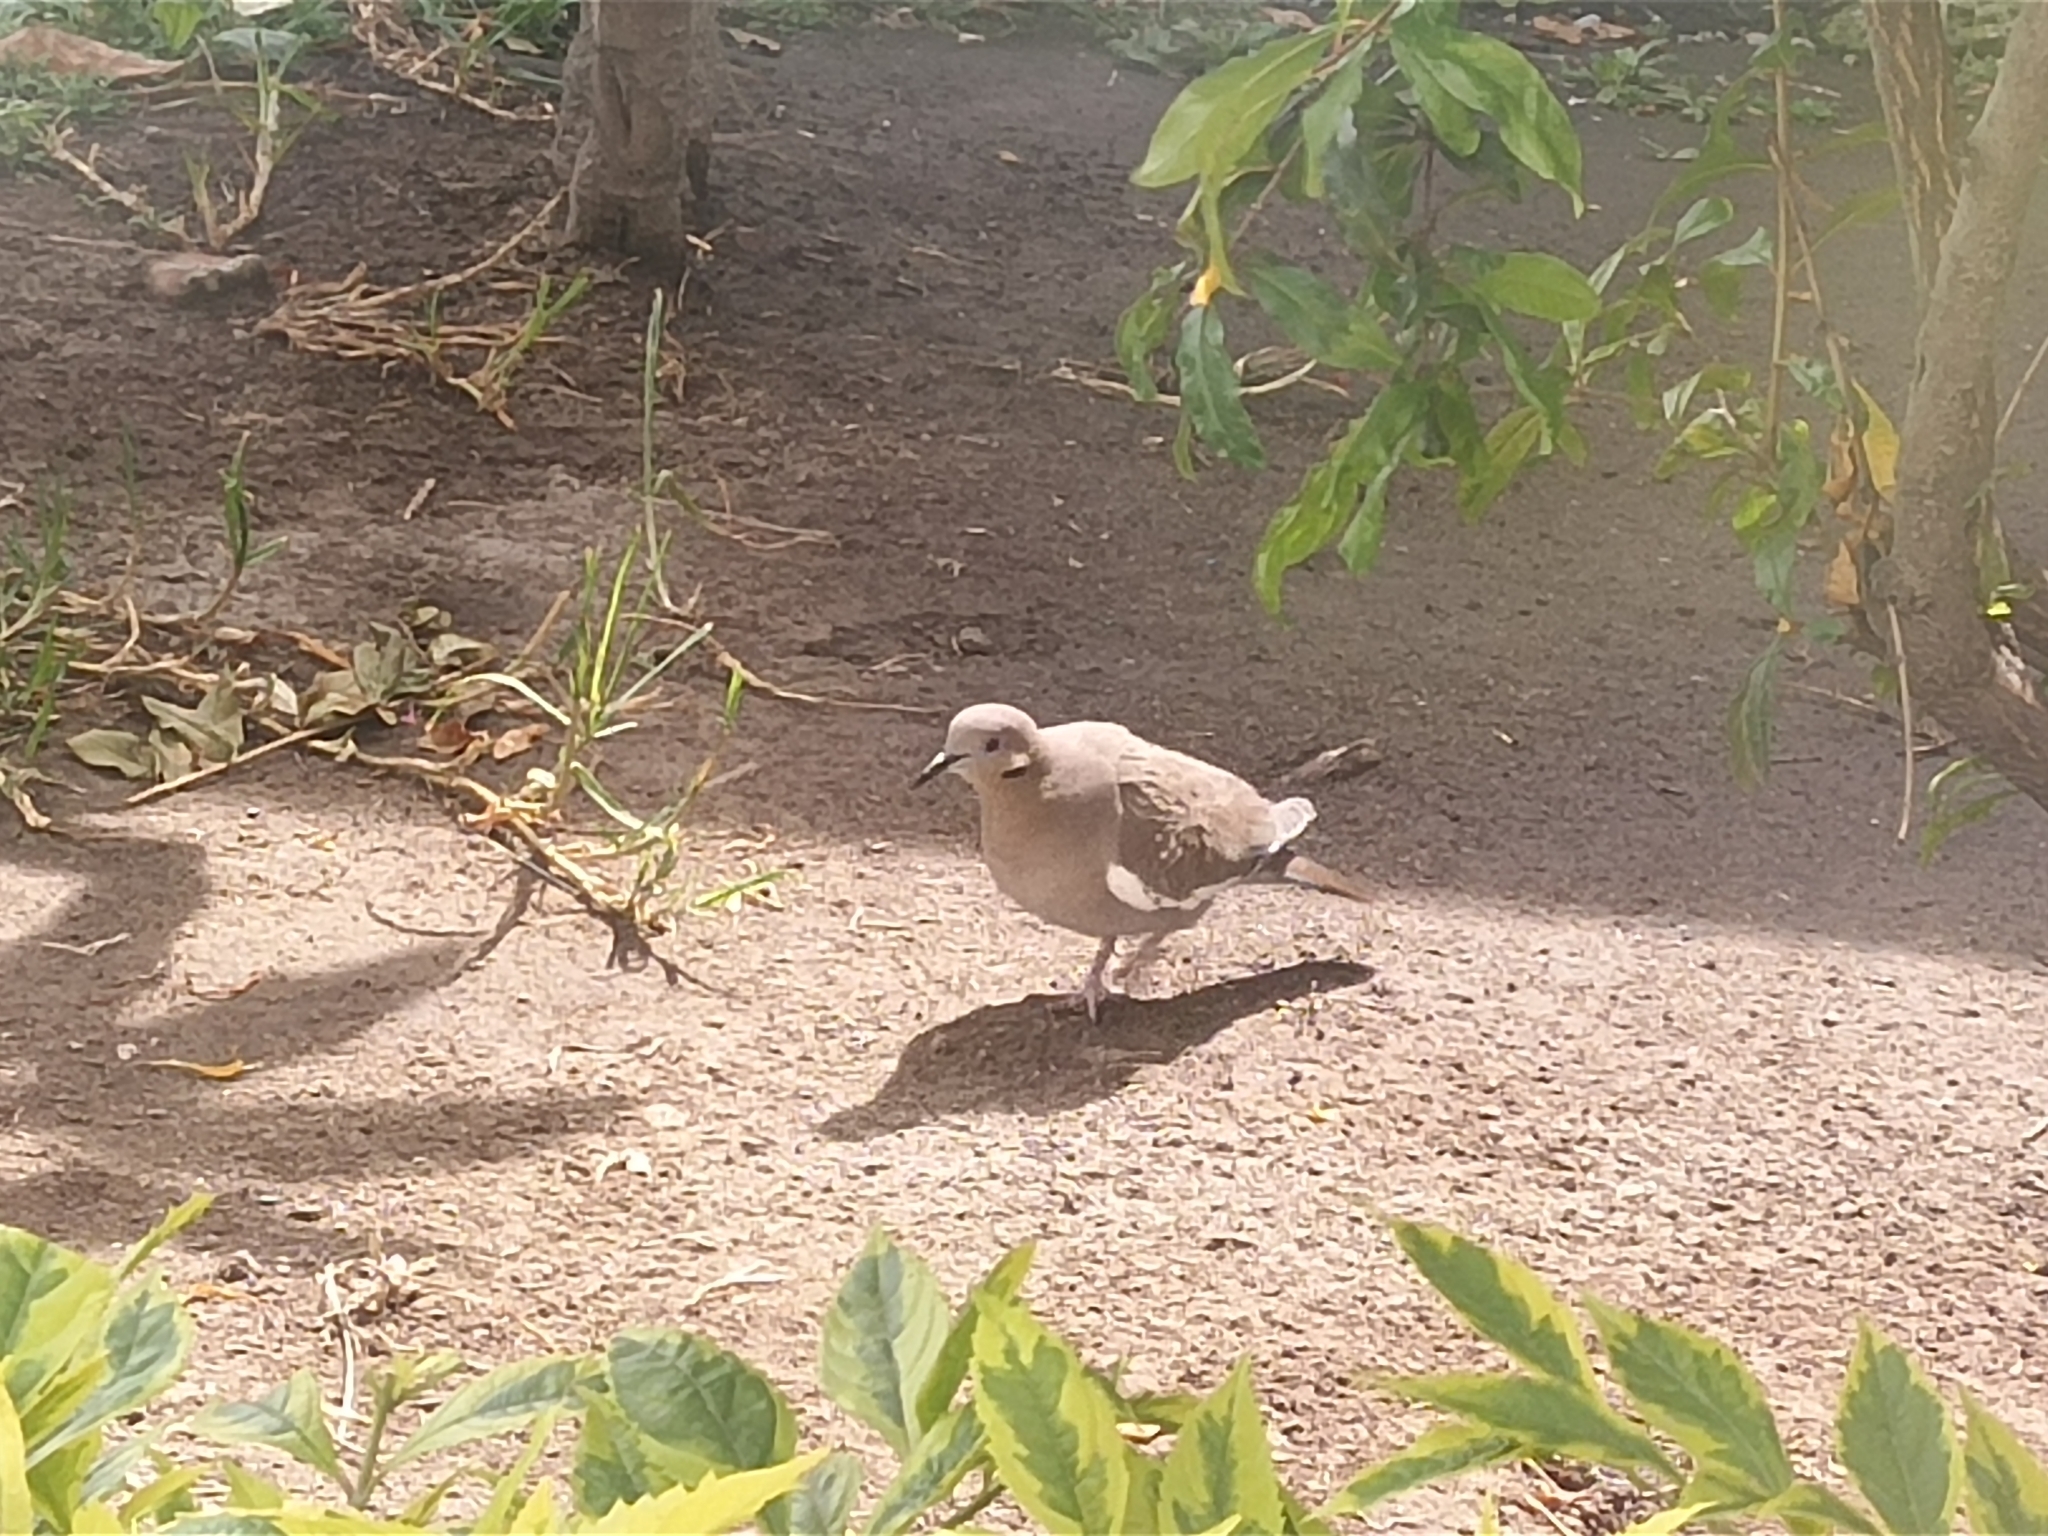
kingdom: Animalia
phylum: Chordata
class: Aves
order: Columbiformes
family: Columbidae
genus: Zenaida
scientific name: Zenaida asiatica
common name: White-winged dove
